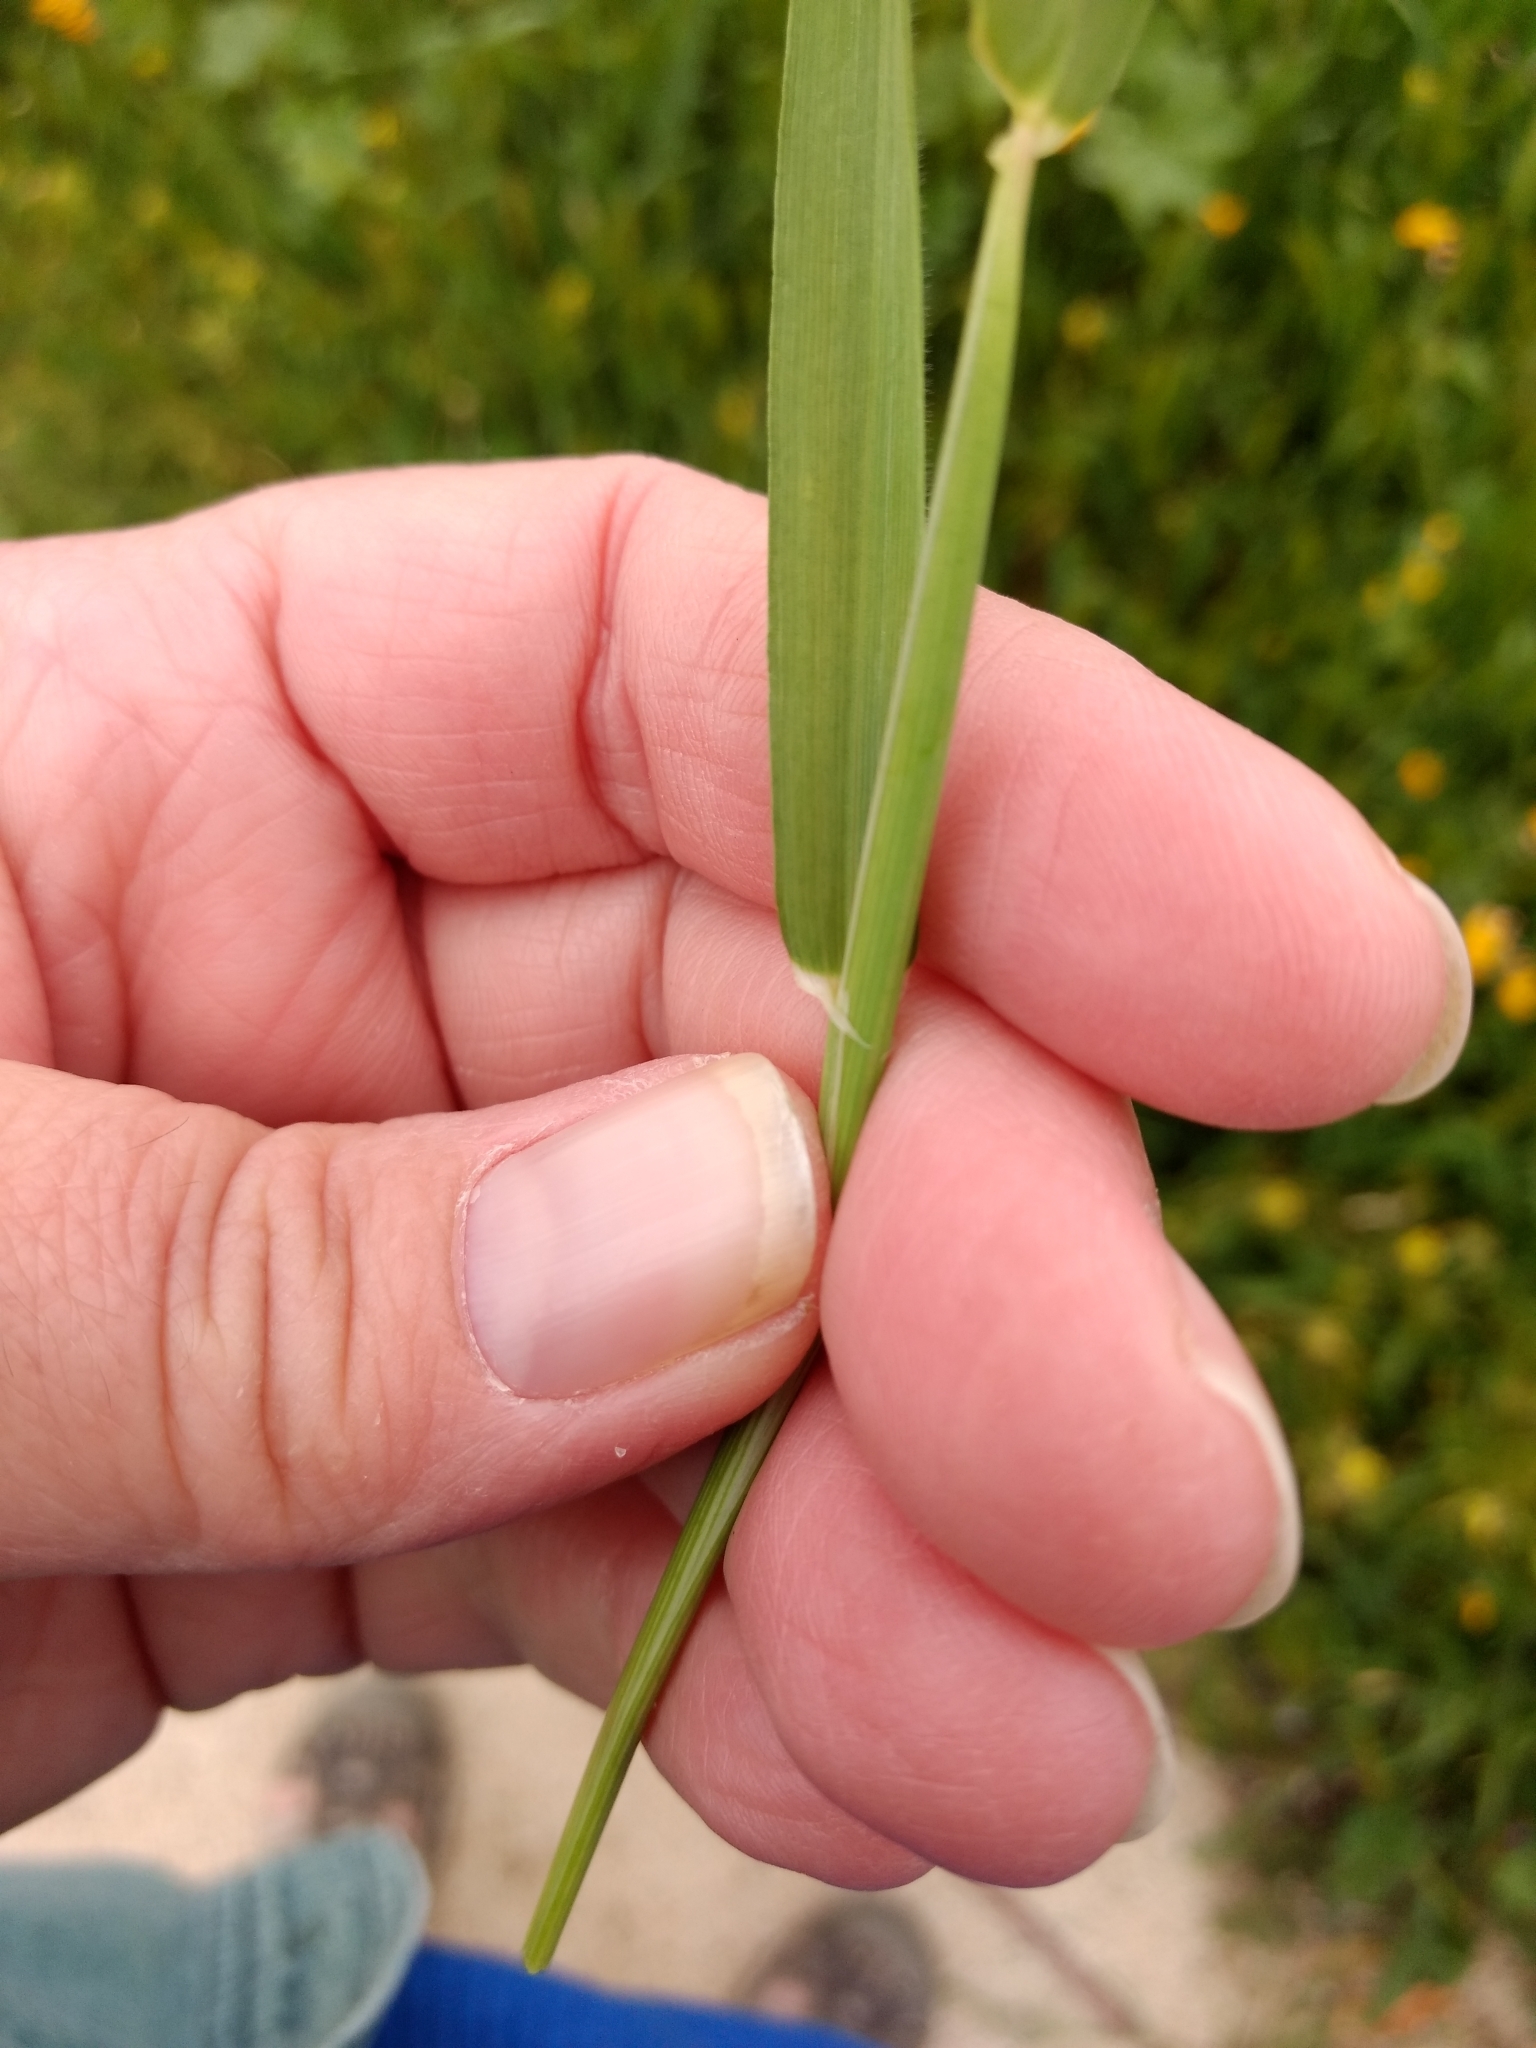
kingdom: Plantae
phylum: Tracheophyta
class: Liliopsida
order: Poales
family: Poaceae
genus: Hordeum
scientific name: Hordeum murinum
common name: Wall barley
